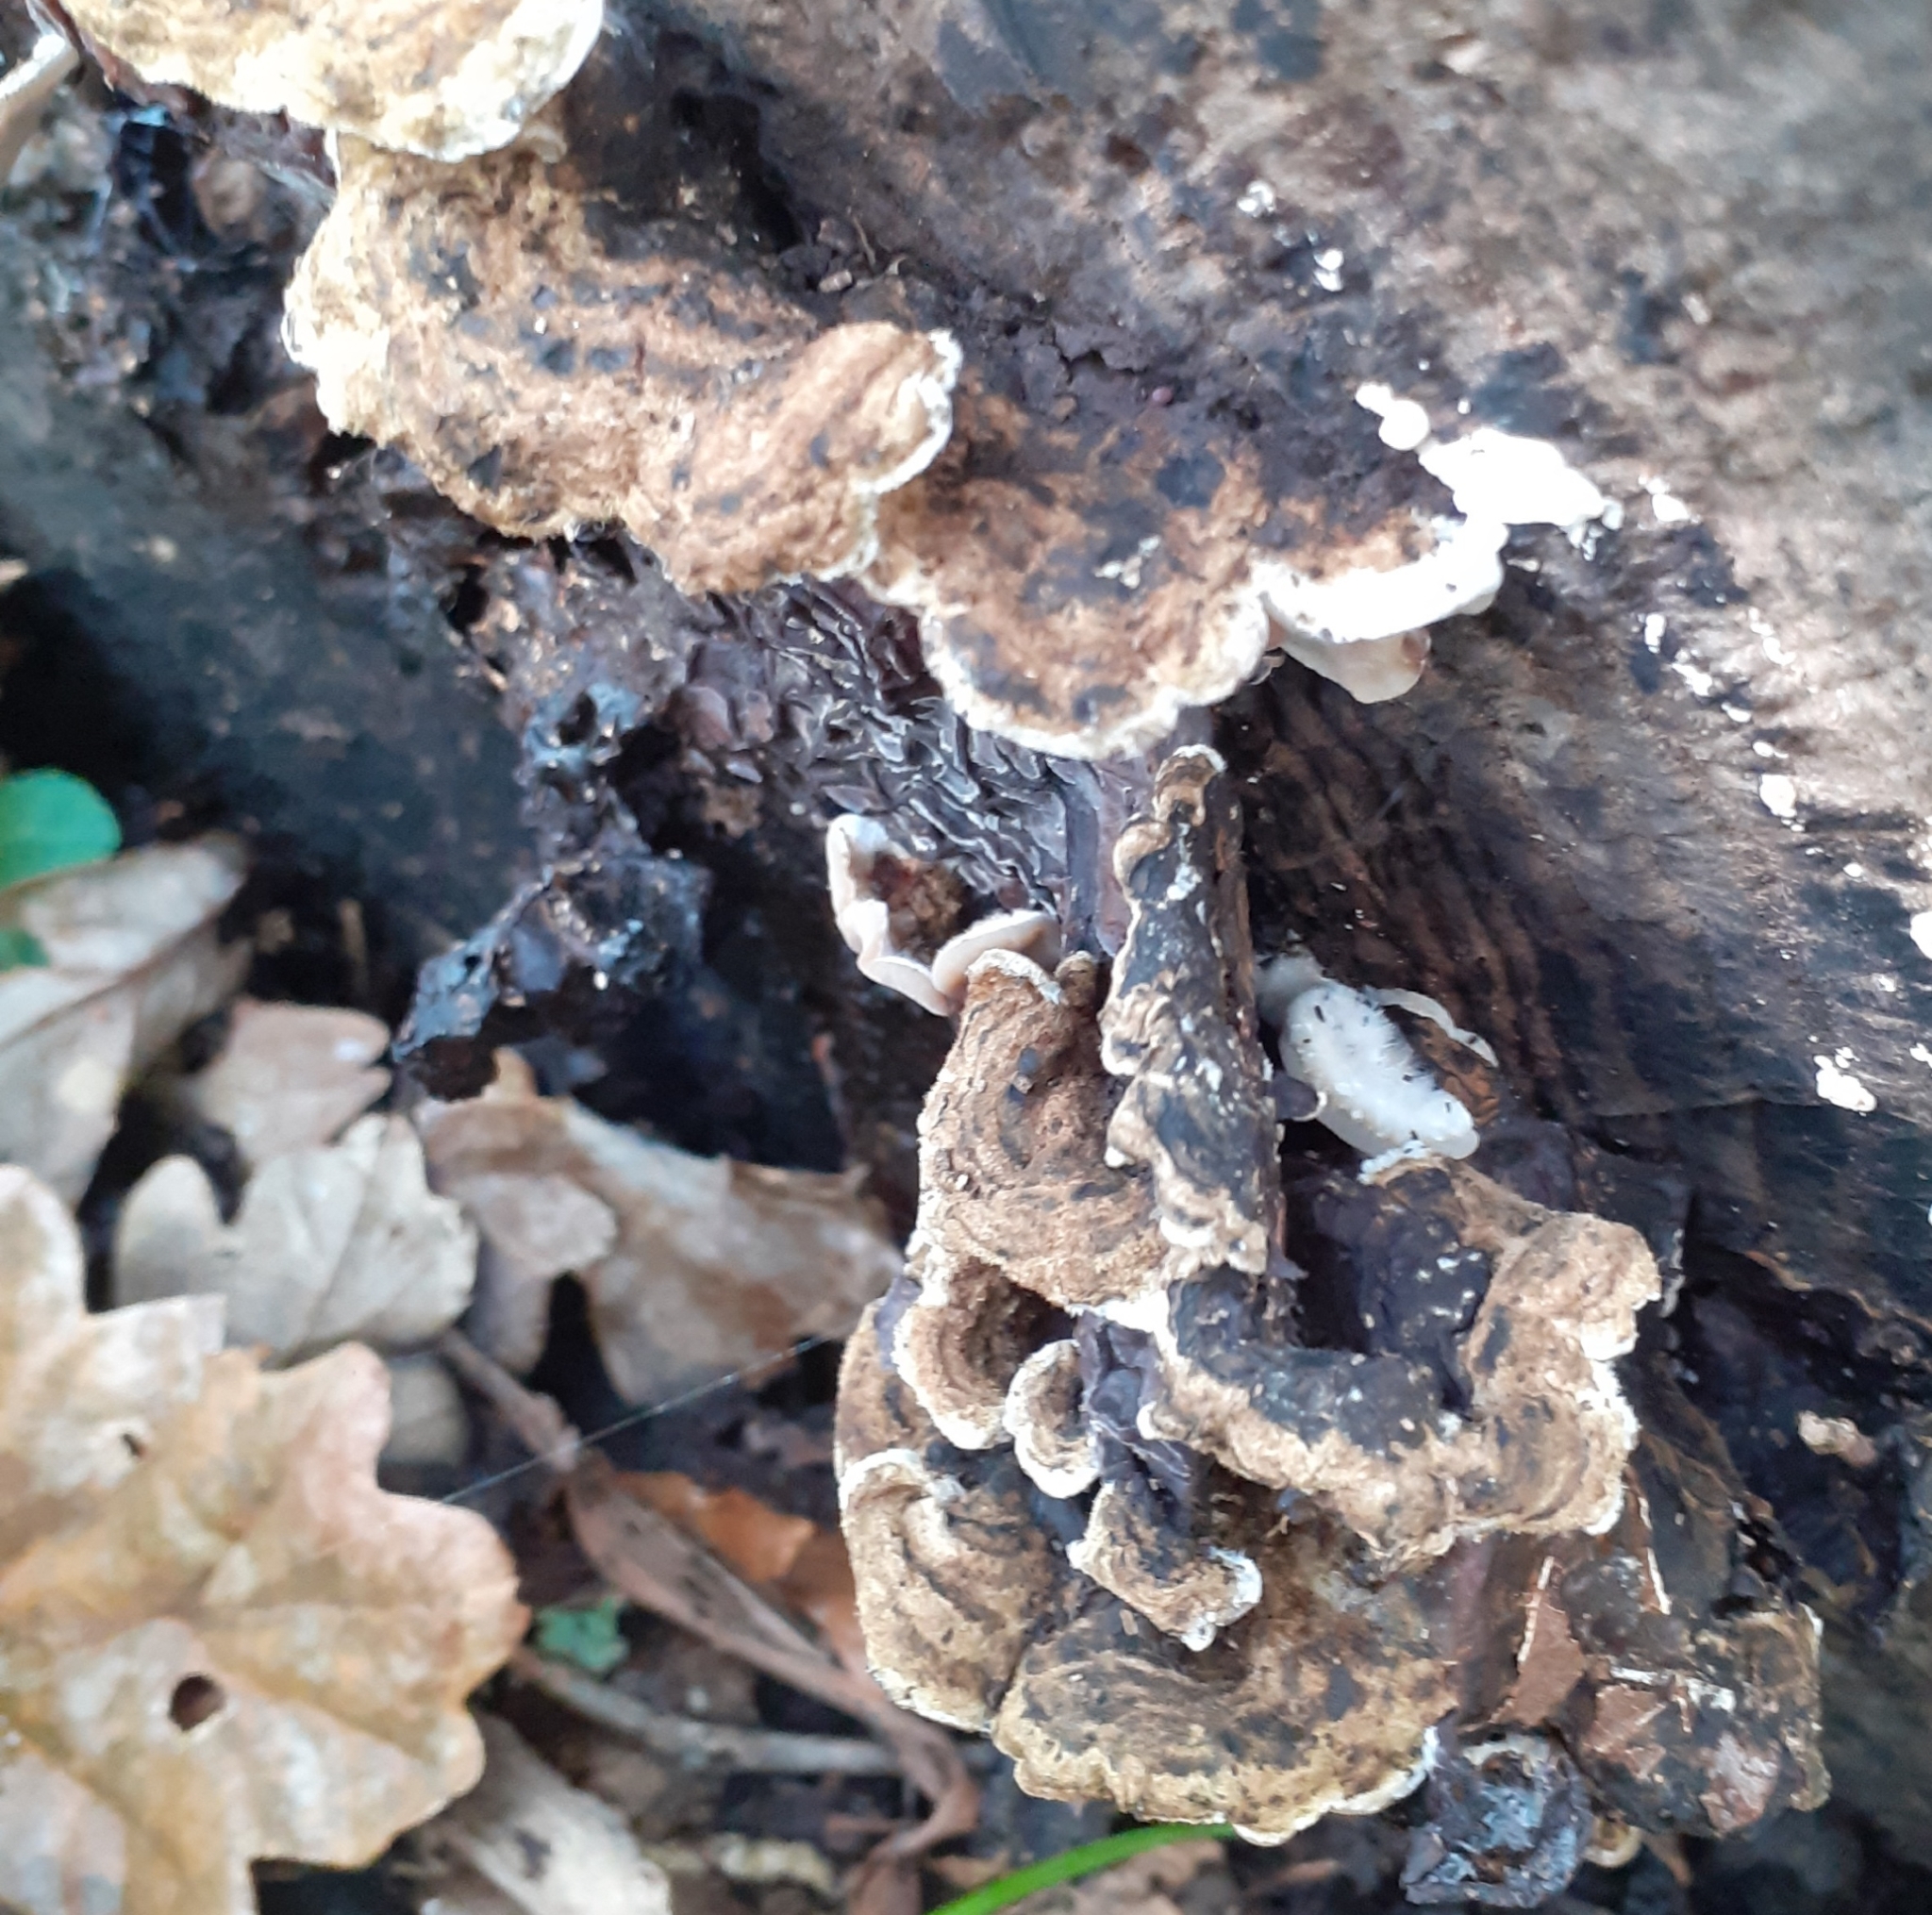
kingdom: Fungi
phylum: Basidiomycota
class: Agaricomycetes
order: Auriculariales
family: Auriculariaceae
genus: Auricularia
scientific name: Auricularia mesenterica
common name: Tripe fungus
